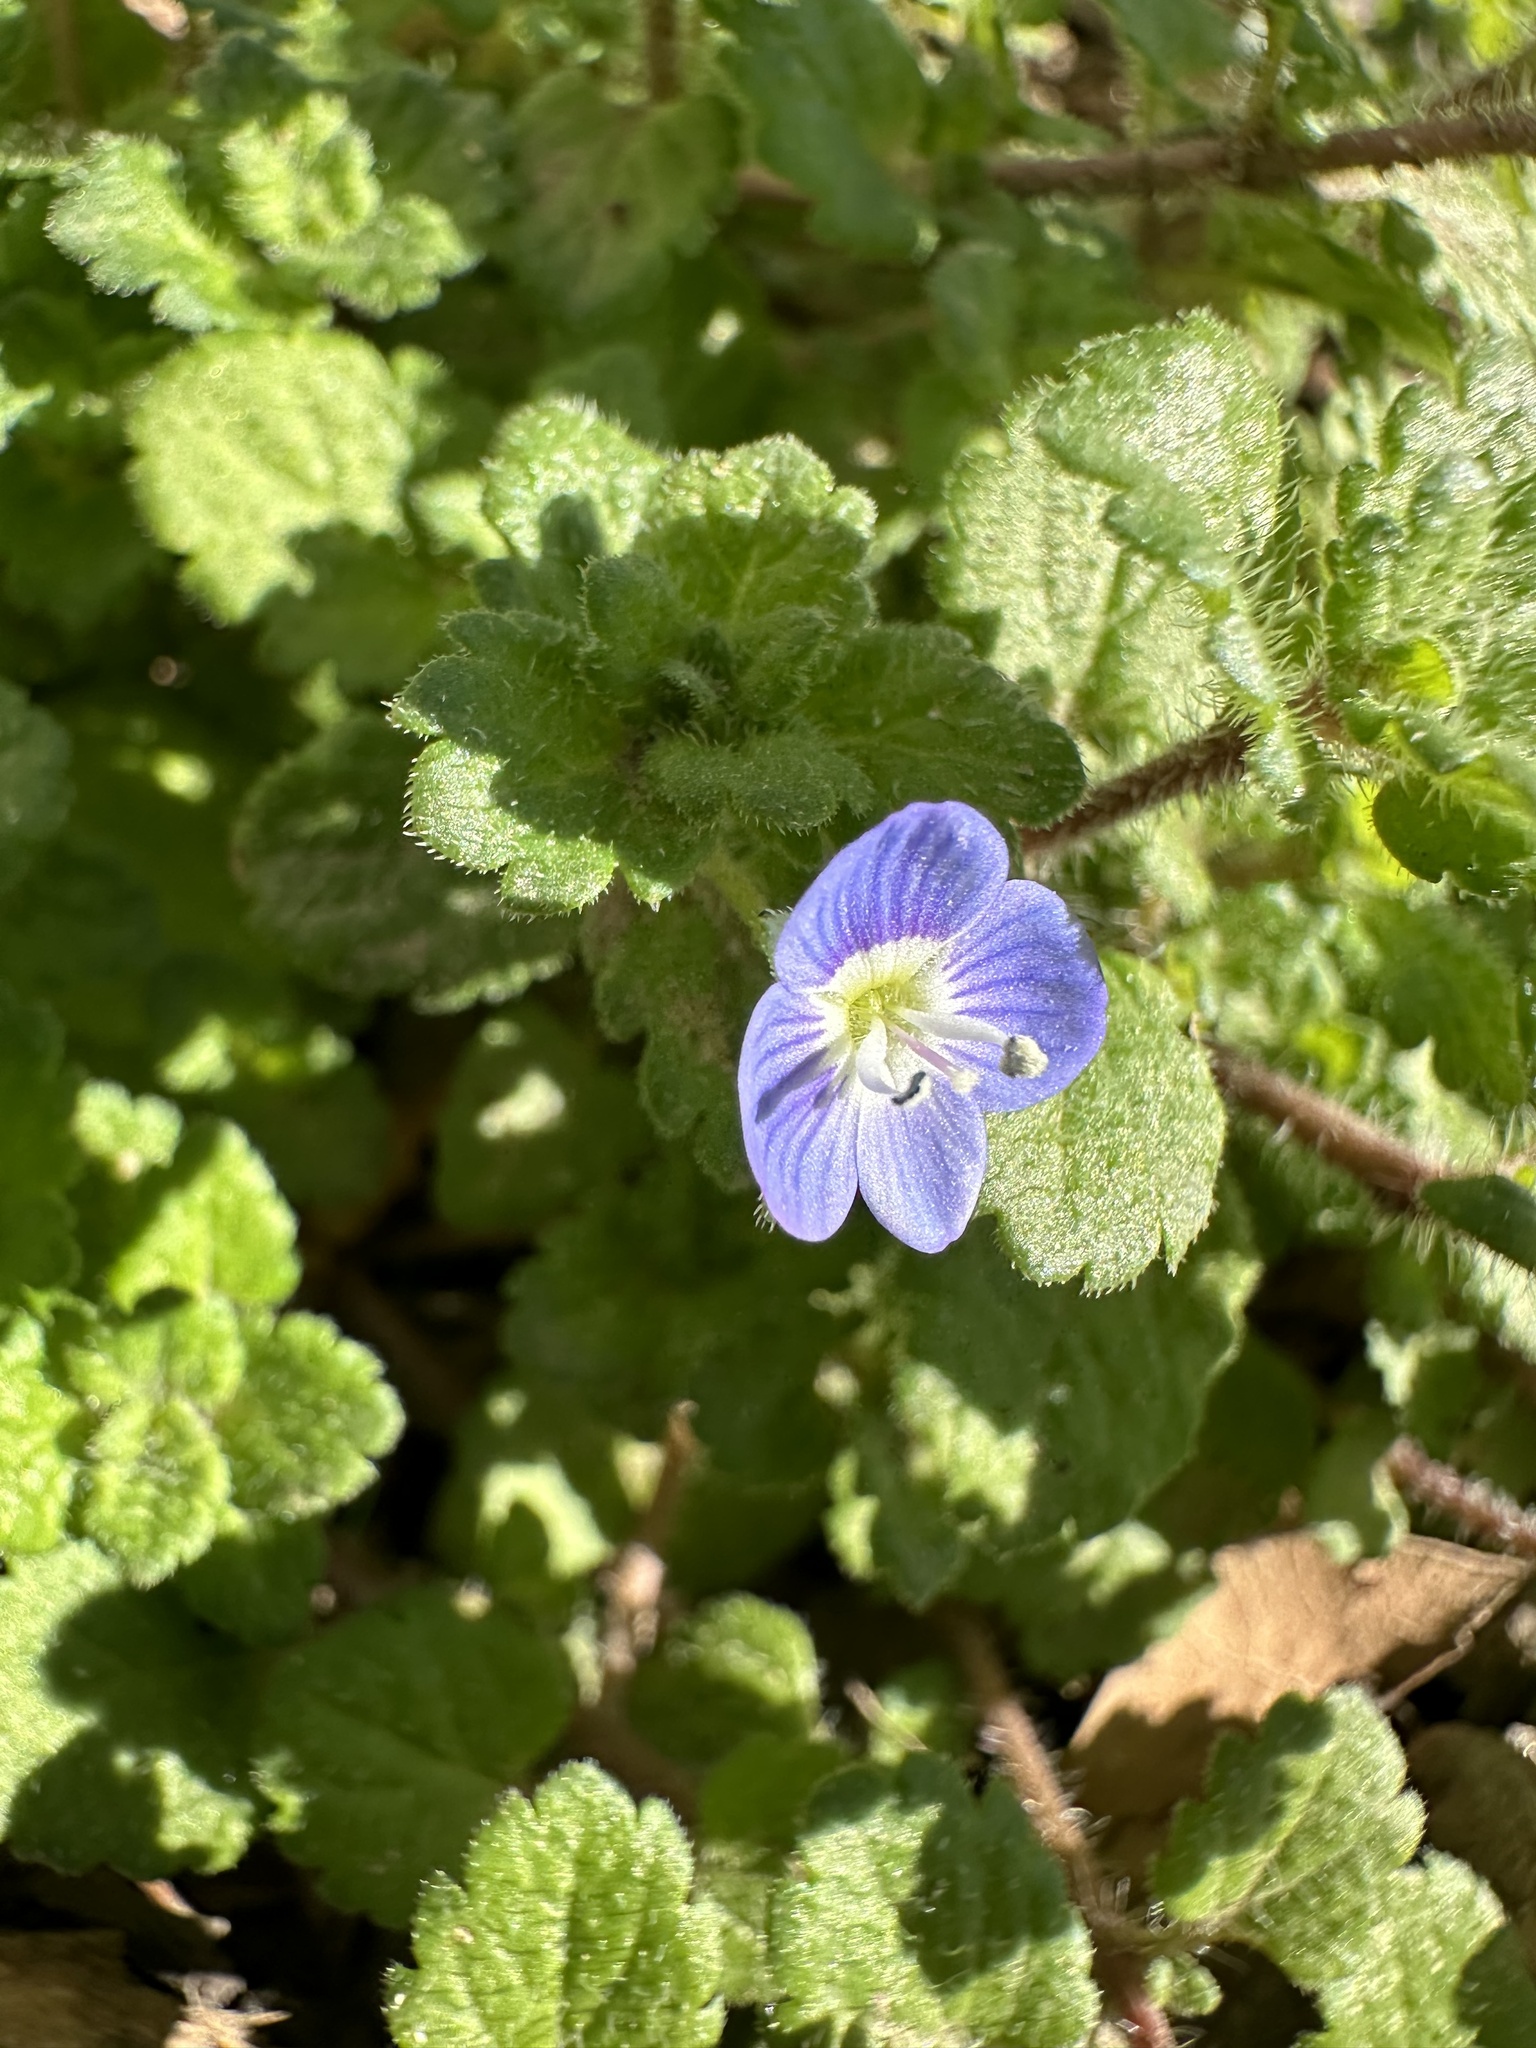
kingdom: Plantae
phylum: Tracheophyta
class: Magnoliopsida
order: Lamiales
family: Plantaginaceae
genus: Veronica
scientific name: Veronica persica
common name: Common field-speedwell
